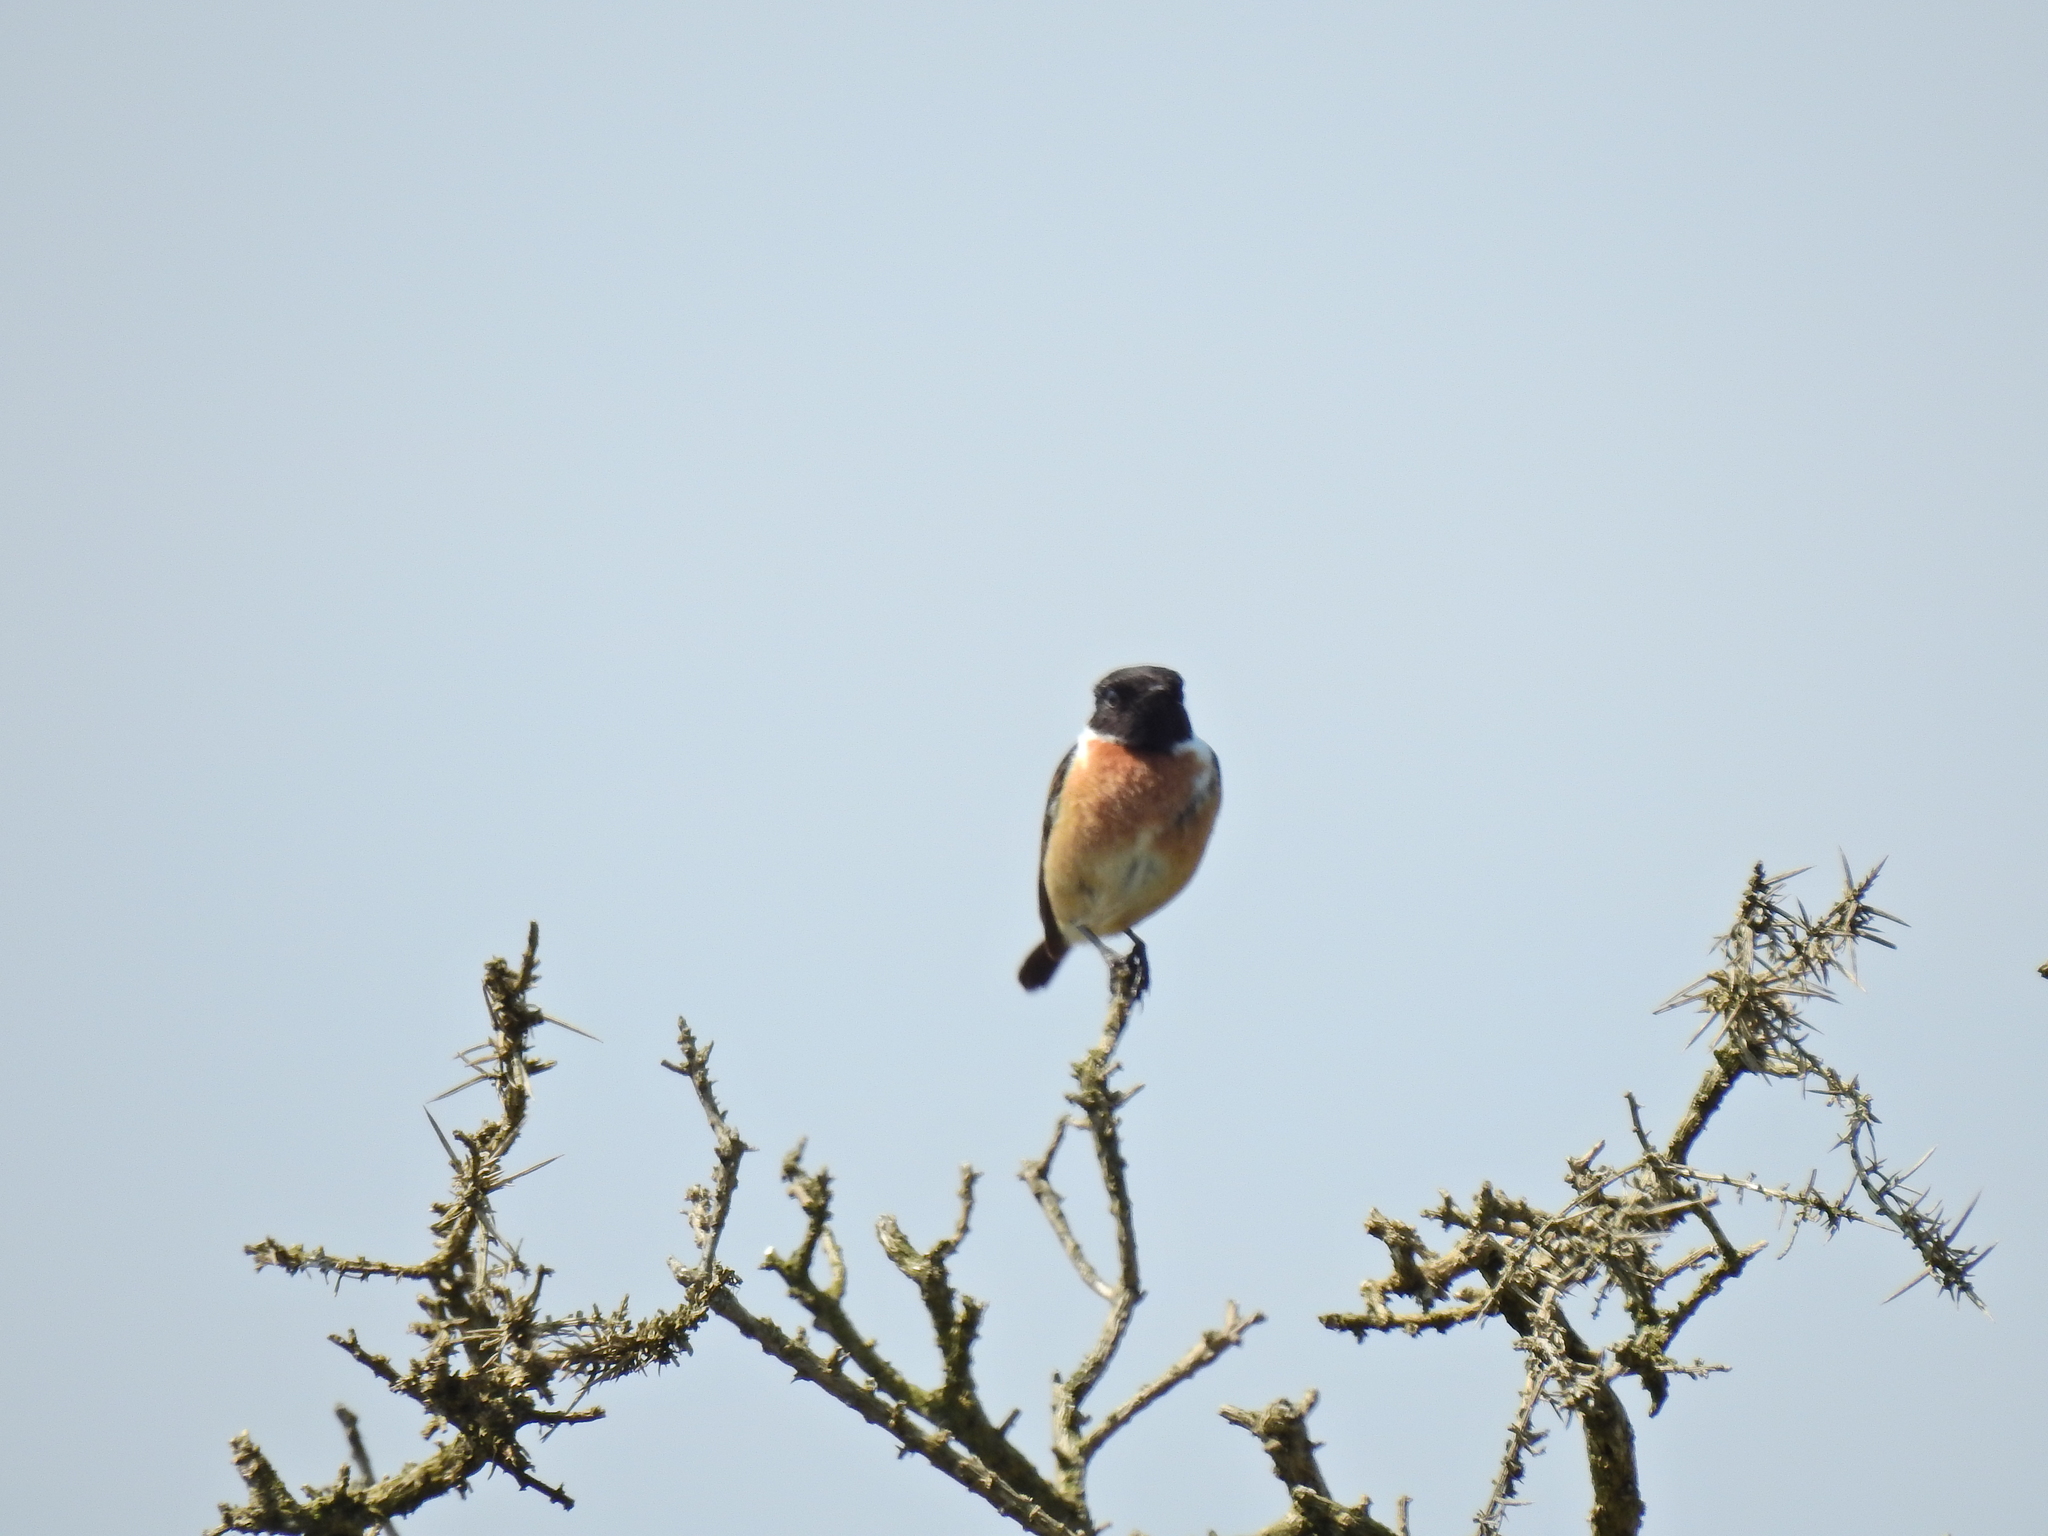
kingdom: Animalia
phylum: Chordata
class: Aves
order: Passeriformes
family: Muscicapidae
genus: Saxicola
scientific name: Saxicola rubicola
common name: European stonechat
